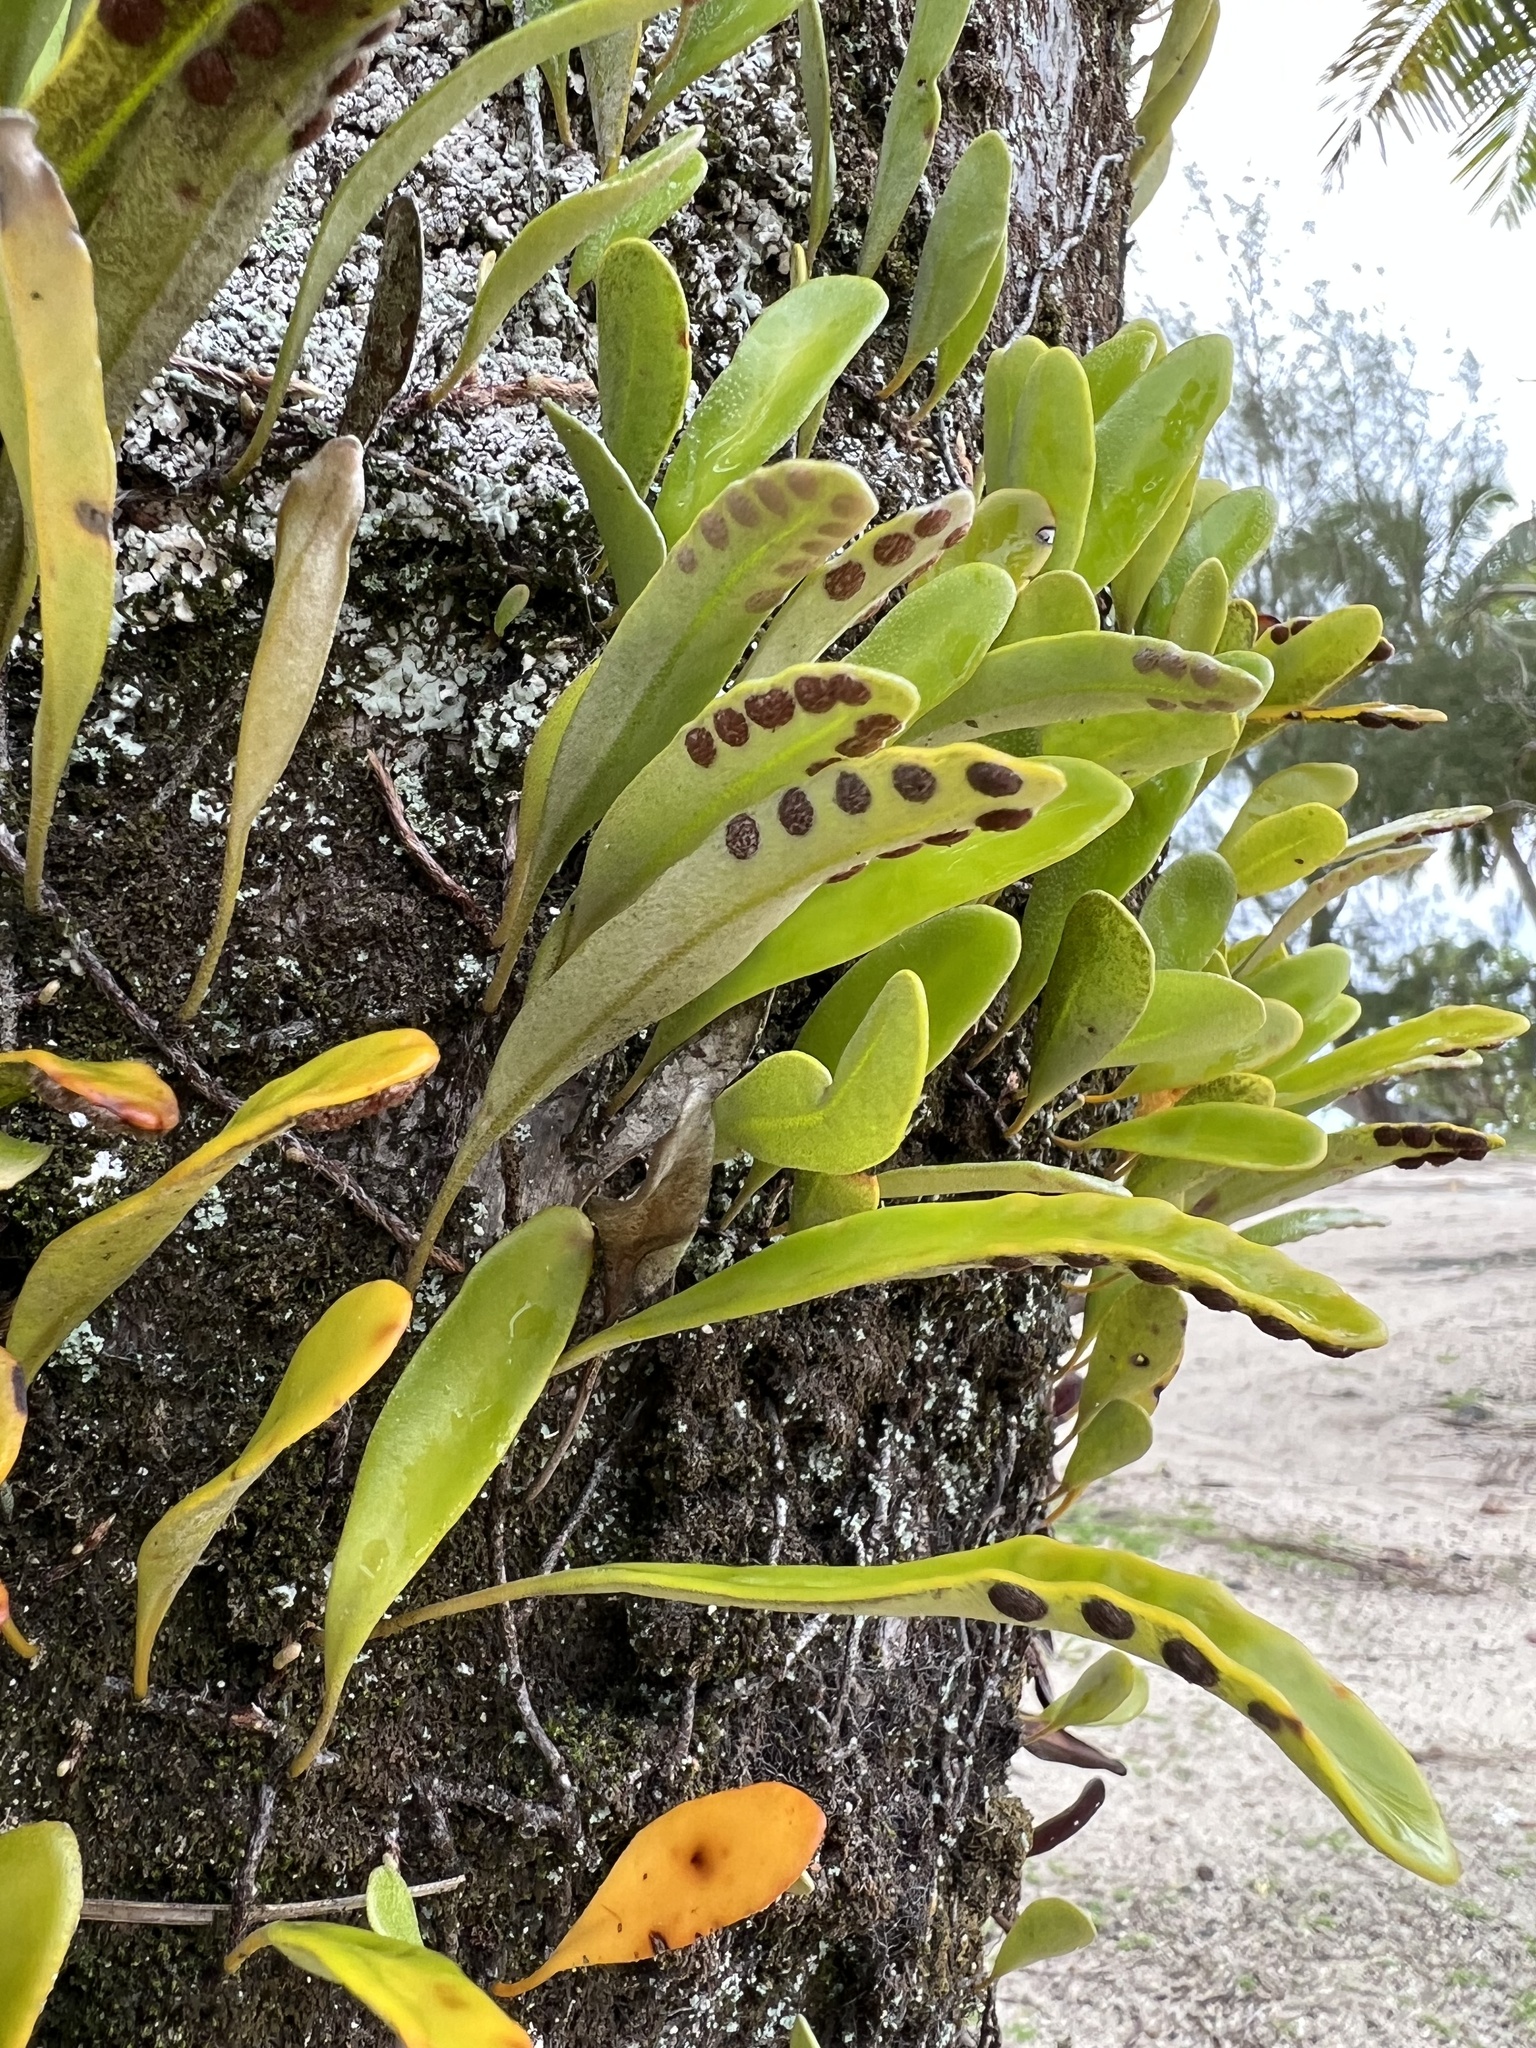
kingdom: Plantae
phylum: Tracheophyta
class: Polypodiopsida
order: Polypodiales
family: Polypodiaceae
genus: Pyrrosia
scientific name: Pyrrosia serpens
